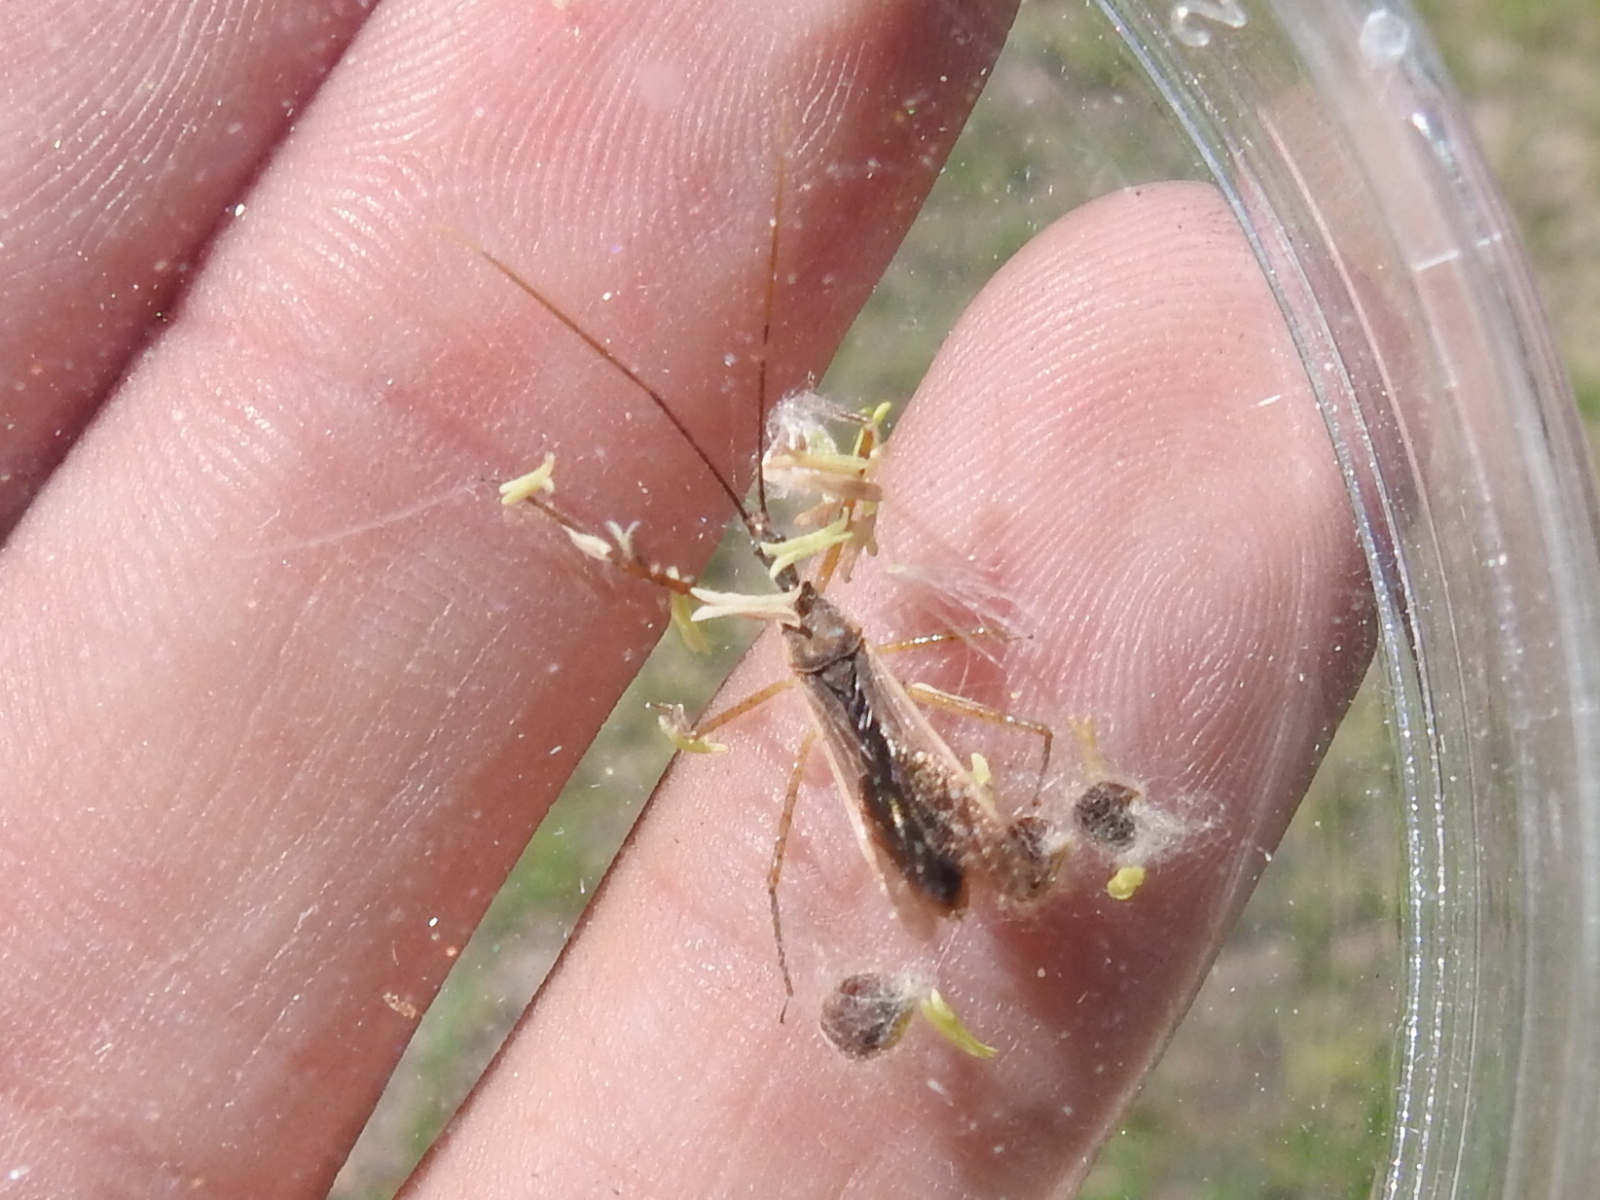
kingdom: Animalia
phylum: Arthropoda
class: Insecta
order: Hemiptera
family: Reduviidae
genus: Zelus
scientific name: Zelus cervicalis
